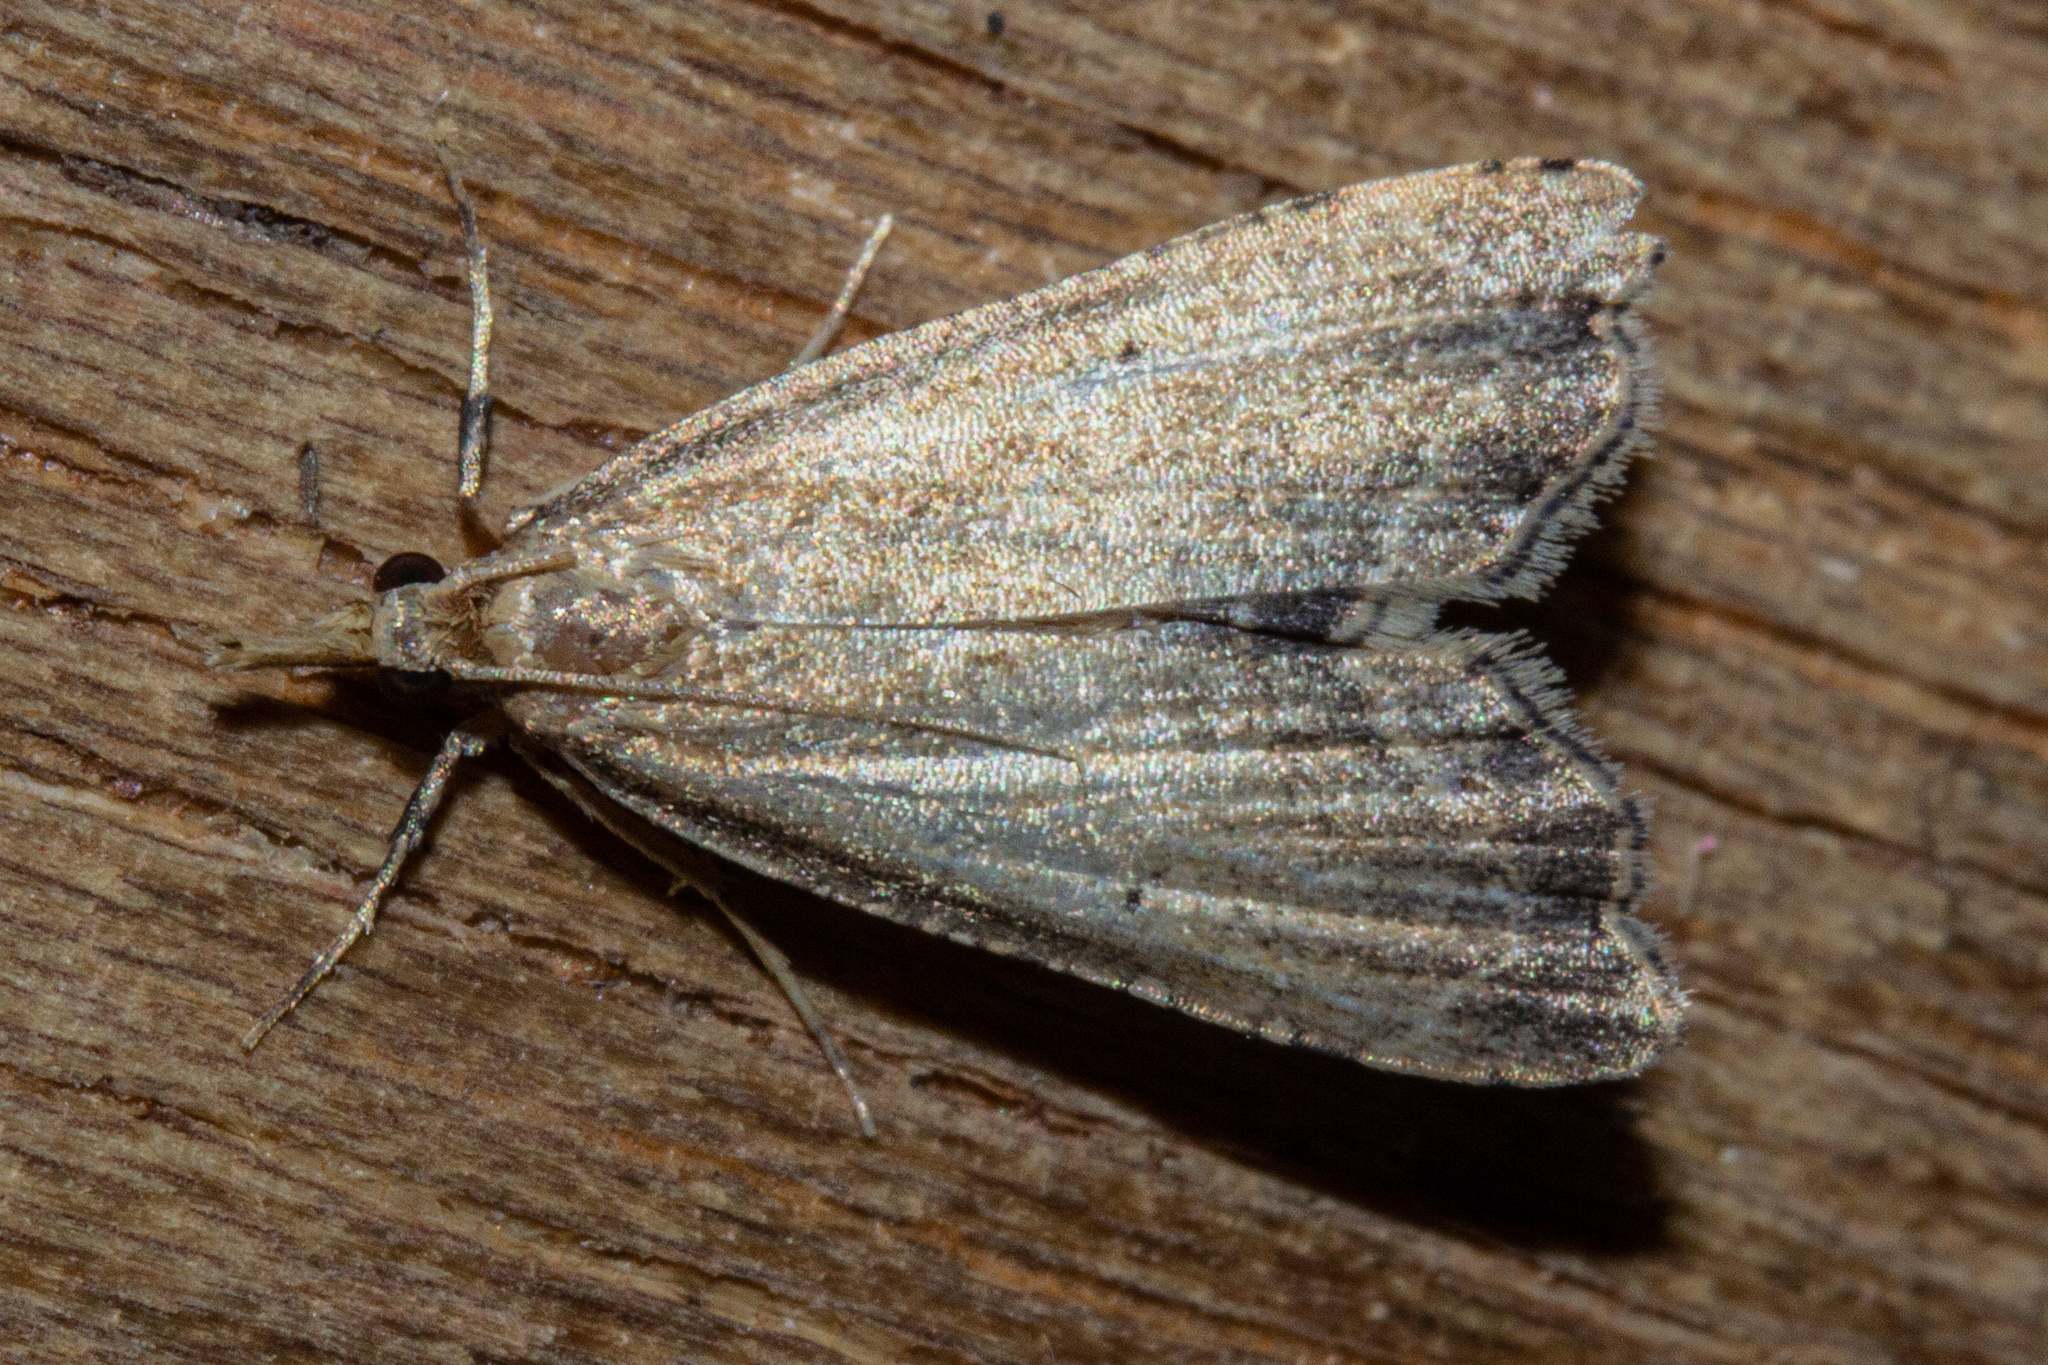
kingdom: Animalia
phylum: Arthropoda
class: Insecta
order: Lepidoptera
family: Crambidae
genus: Diplopseustis
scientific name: Diplopseustis perieresalis
